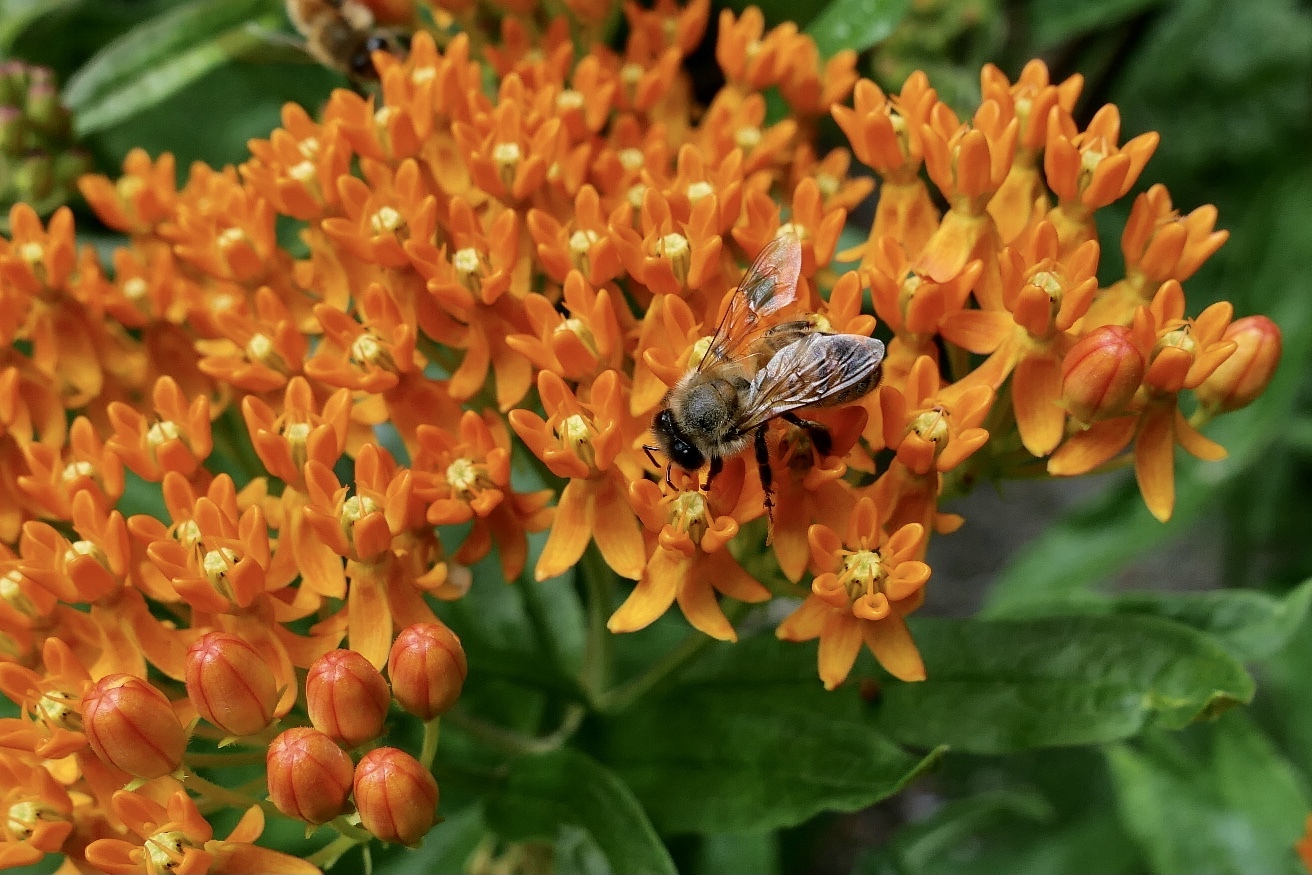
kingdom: Animalia
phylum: Arthropoda
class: Insecta
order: Hymenoptera
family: Apidae
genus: Apis
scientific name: Apis mellifera
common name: Honey bee
